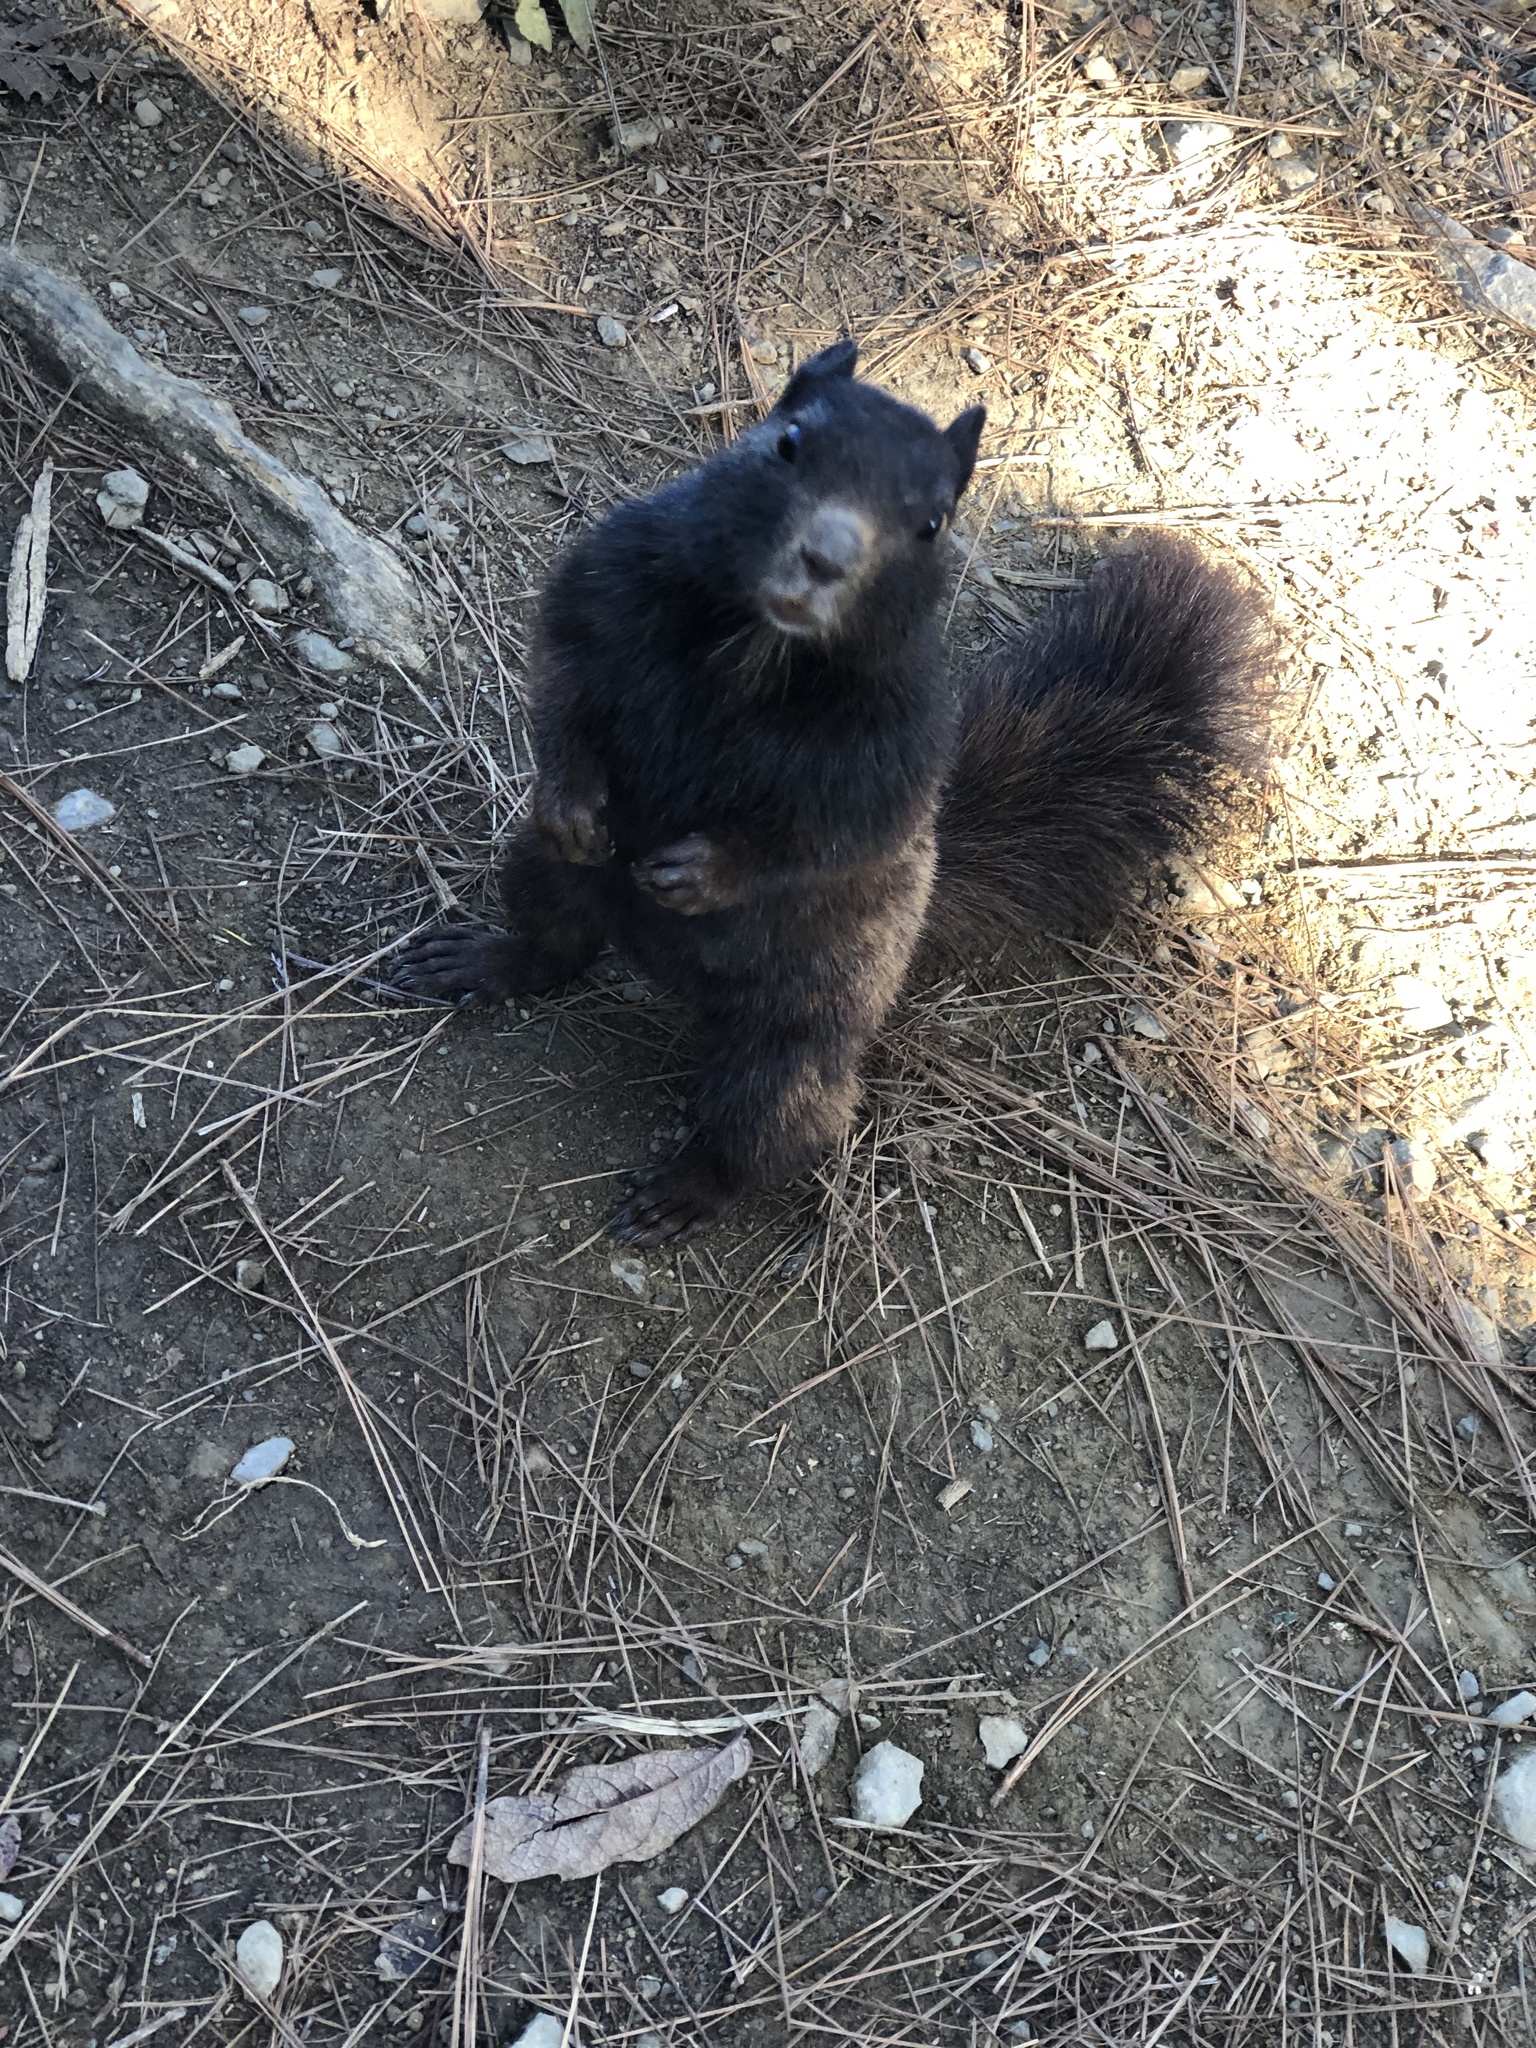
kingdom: Animalia
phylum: Chordata
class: Mammalia
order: Rodentia
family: Sciuridae
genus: Otospermophilus
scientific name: Otospermophilus variegatus
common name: Rock squirrel
